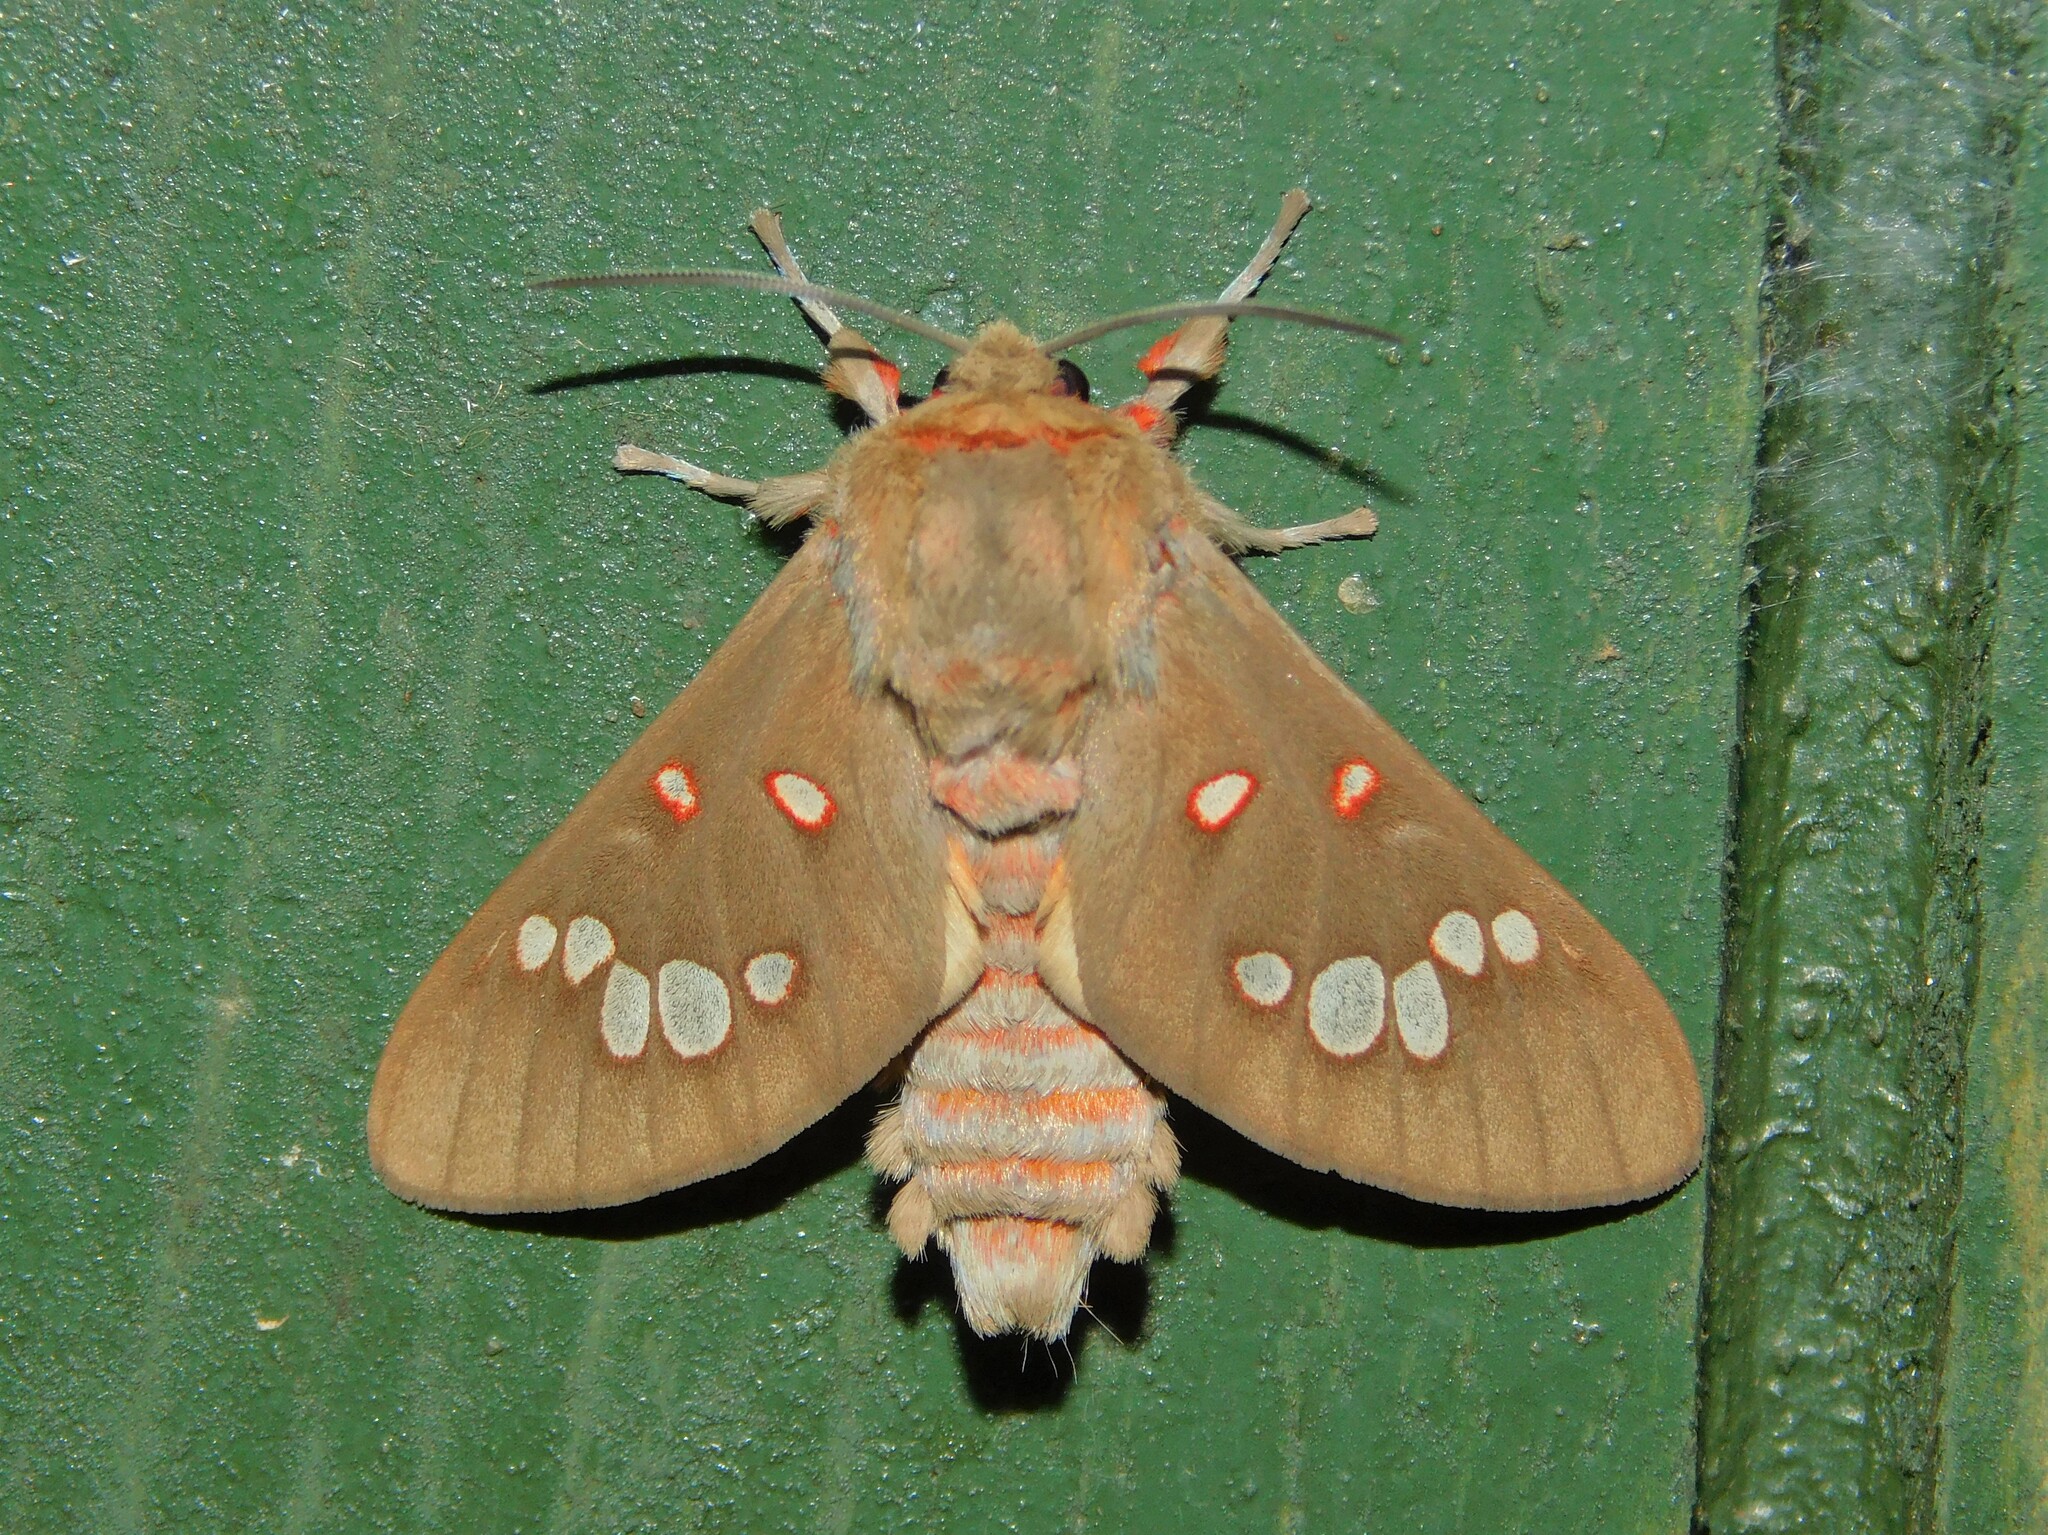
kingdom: Animalia
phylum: Arthropoda
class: Insecta
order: Lepidoptera
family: Erebidae
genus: Balacra
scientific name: Balacra preussi
